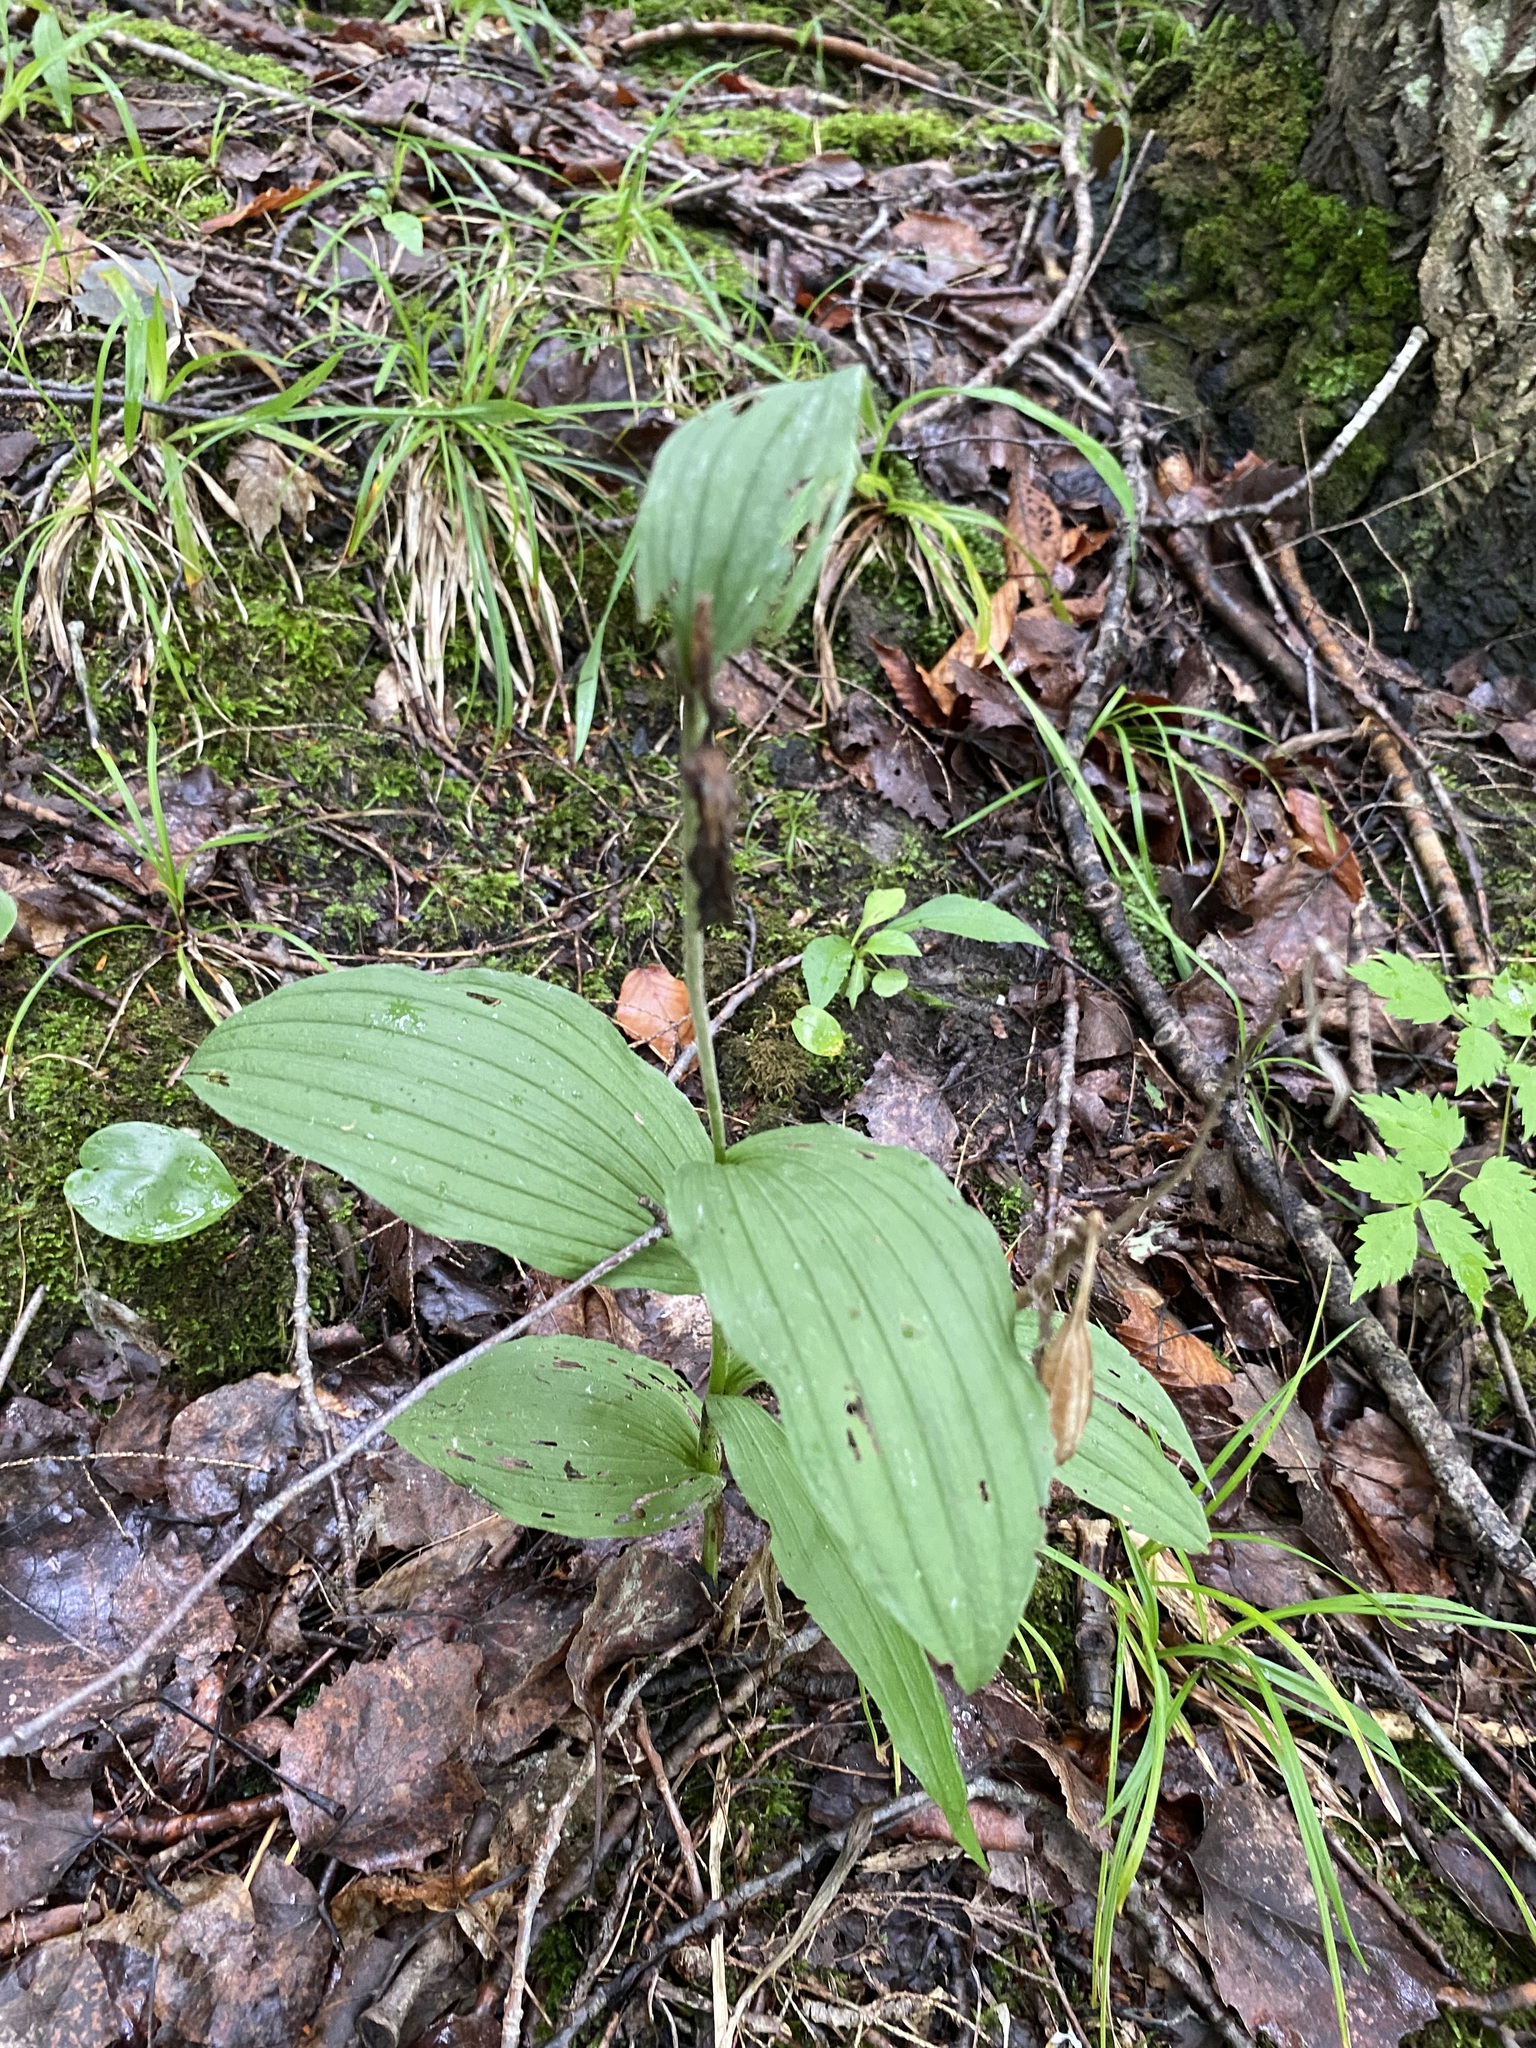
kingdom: Plantae
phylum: Tracheophyta
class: Liliopsida
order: Asparagales
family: Orchidaceae
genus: Cypripedium
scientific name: Cypripedium parviflorum
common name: American yellow lady's-slipper
